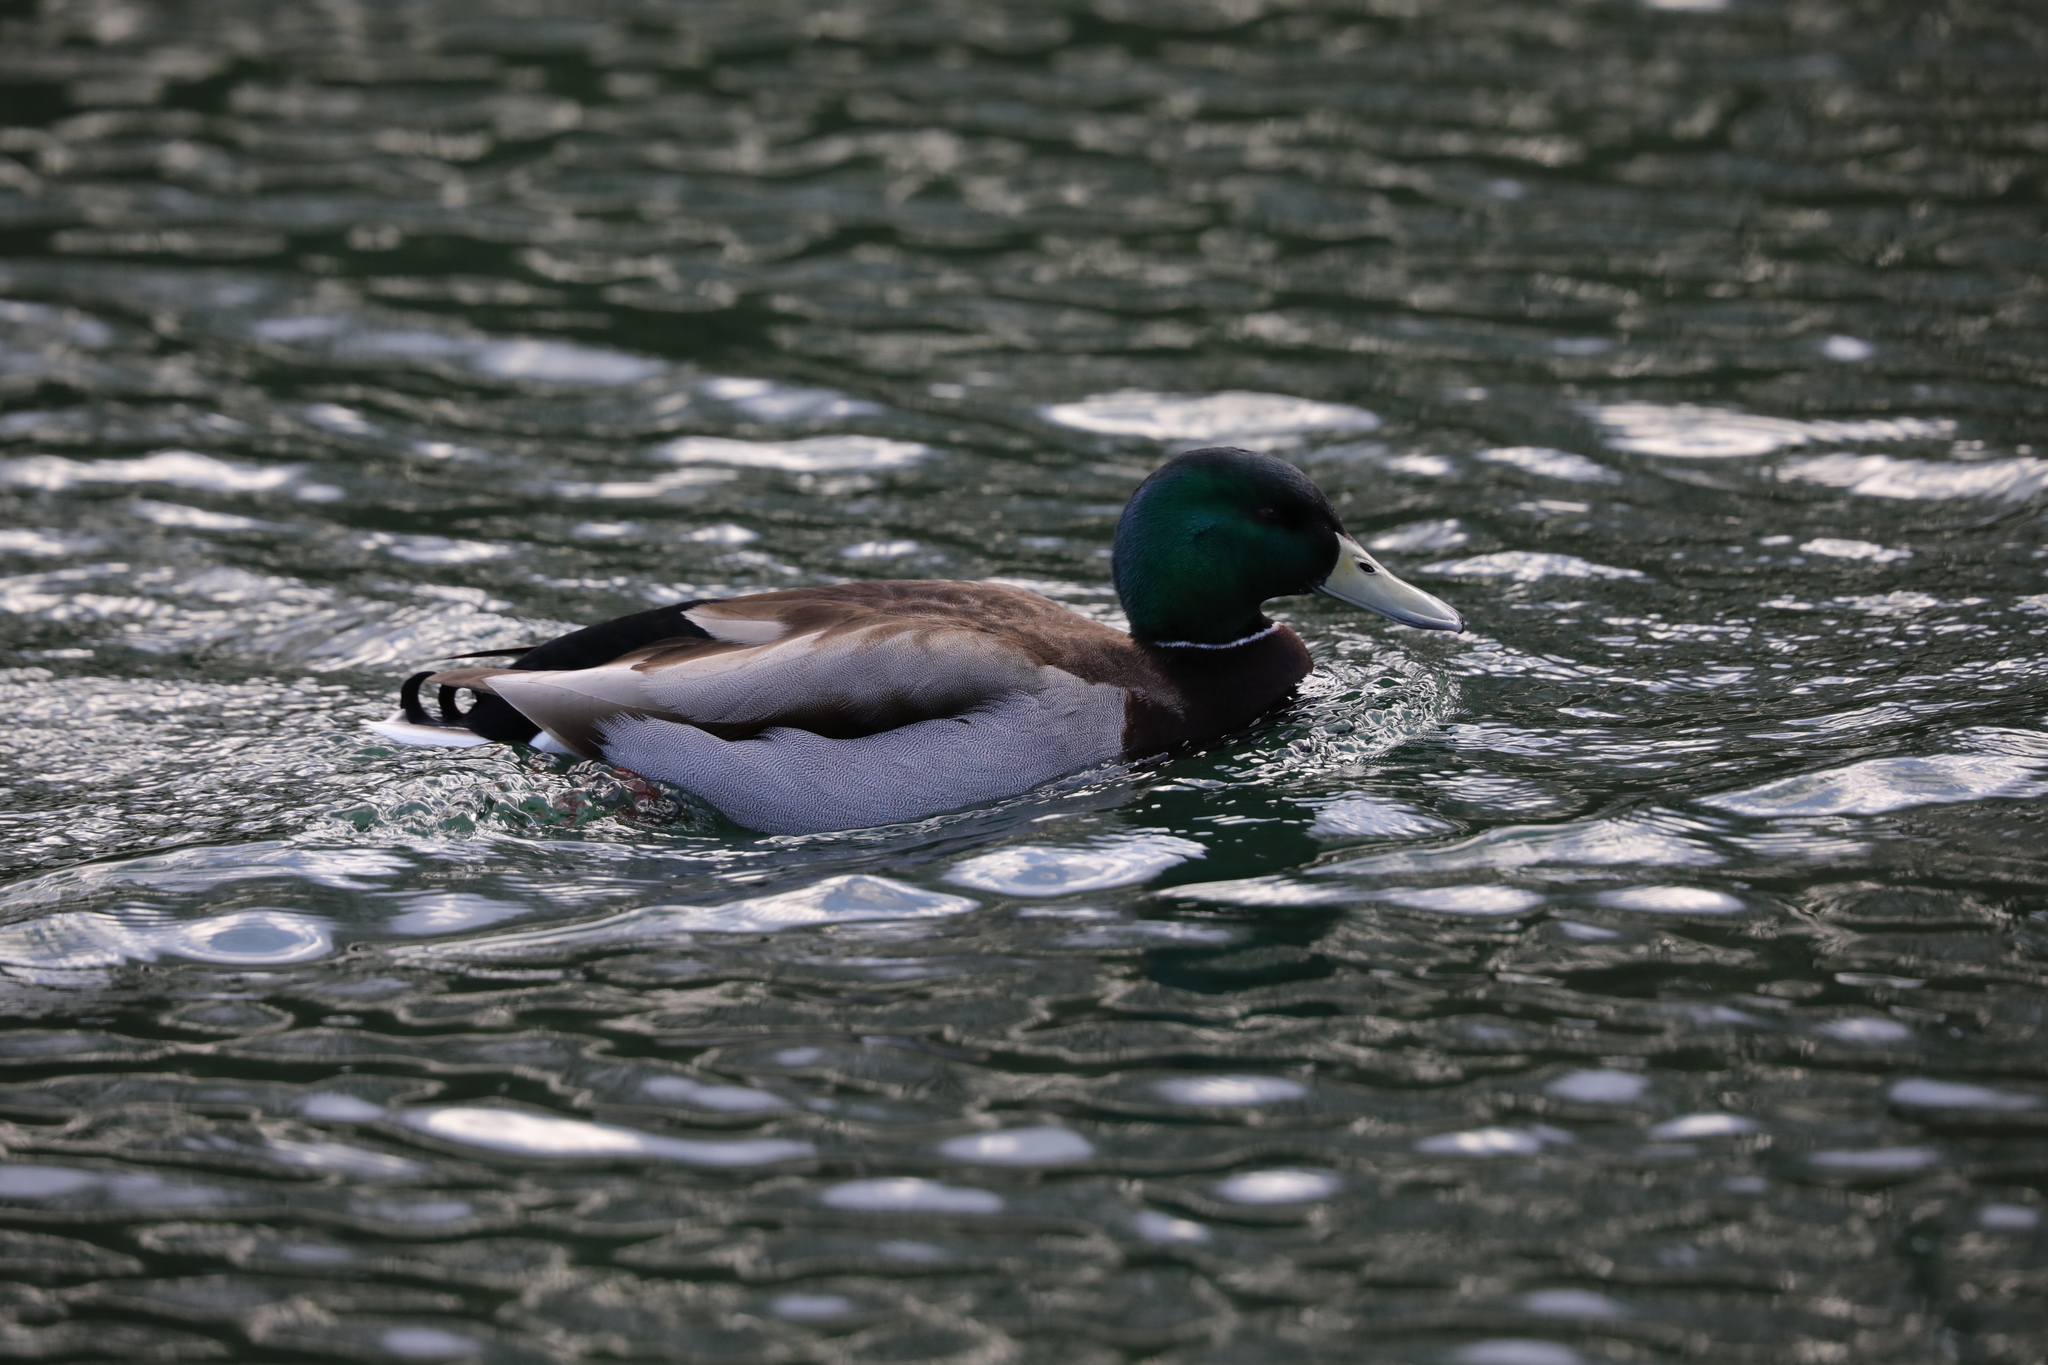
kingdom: Animalia
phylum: Chordata
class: Aves
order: Anseriformes
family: Anatidae
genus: Anas
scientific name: Anas platyrhynchos
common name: Mallard
